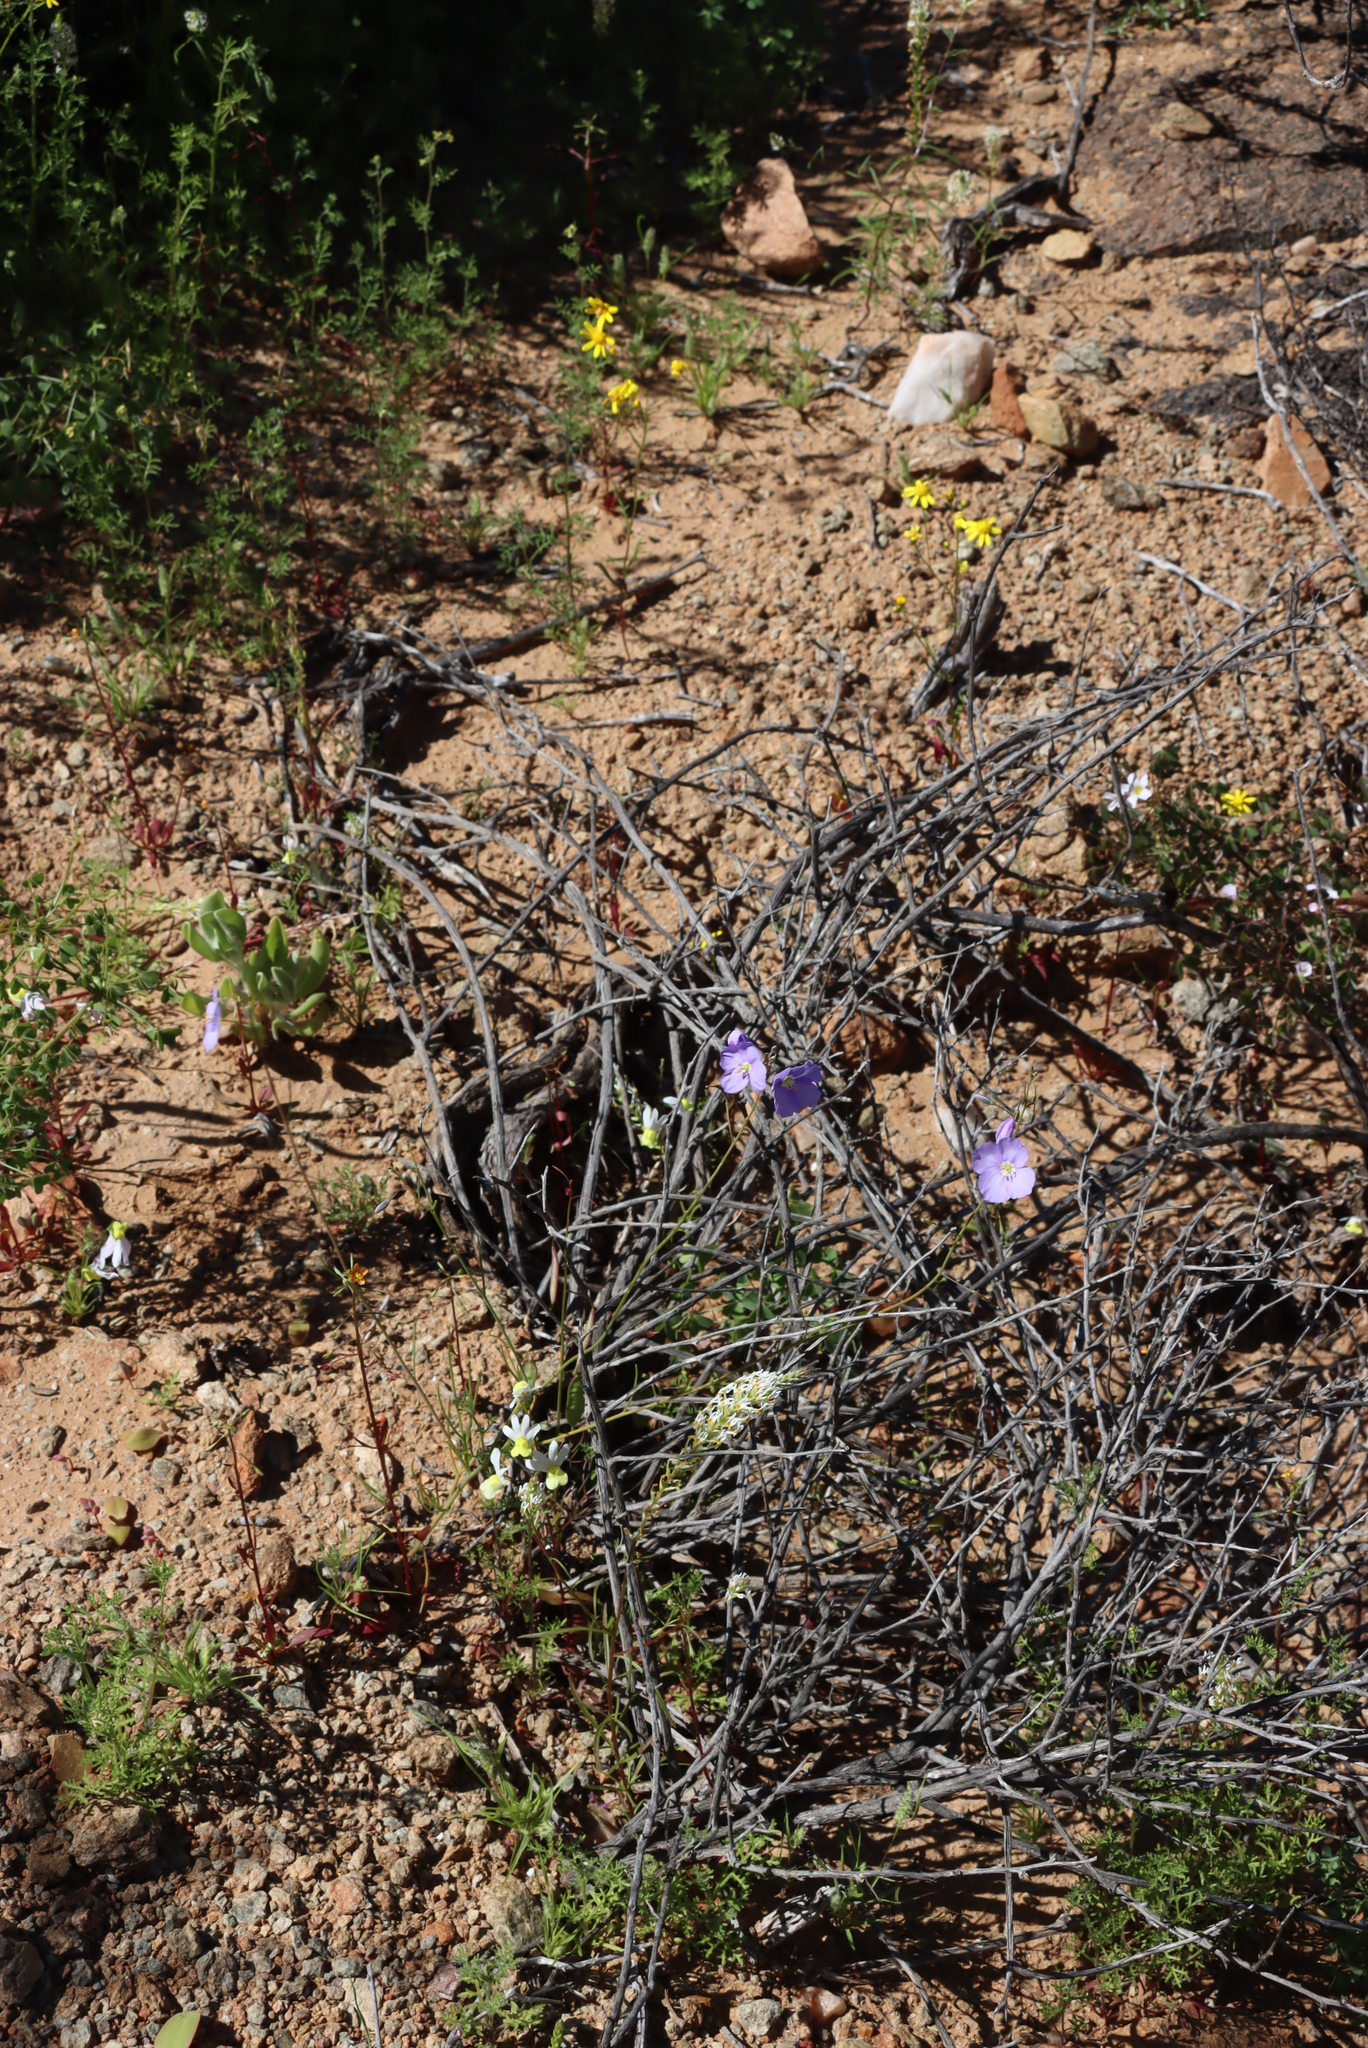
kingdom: Plantae
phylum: Tracheophyta
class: Magnoliopsida
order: Brassicales
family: Brassicaceae
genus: Heliophila
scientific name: Heliophila trifurca
